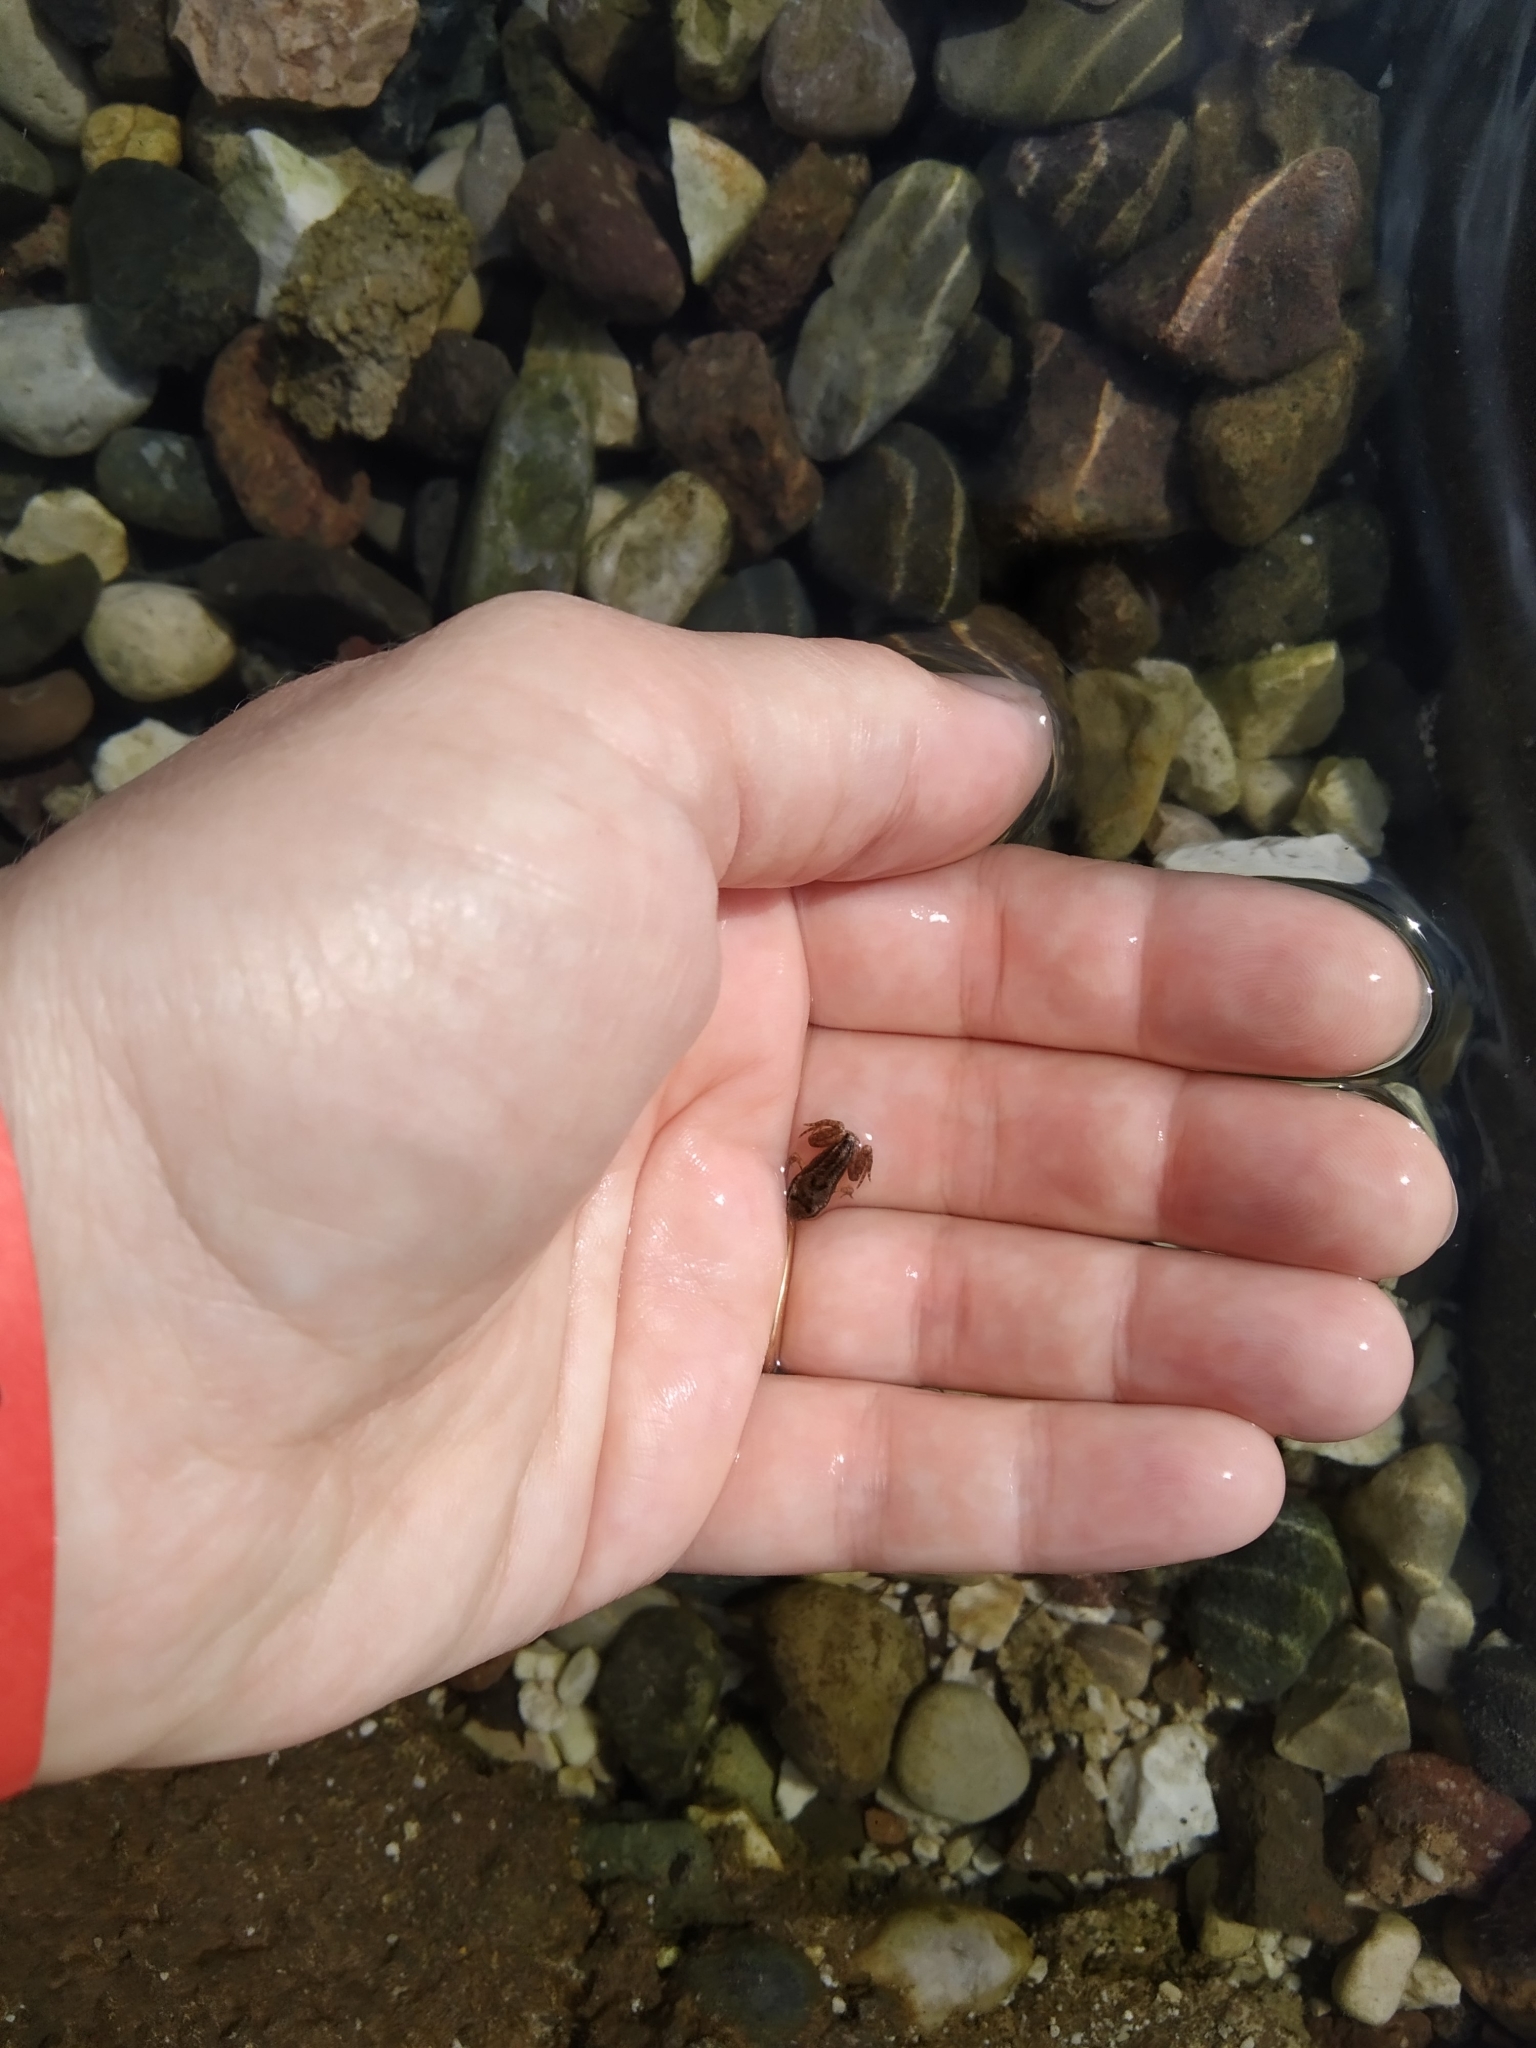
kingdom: Animalia
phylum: Chordata
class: Amphibia
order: Anura
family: Ranidae
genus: Rana
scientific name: Rana temporaria
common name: Common frog
